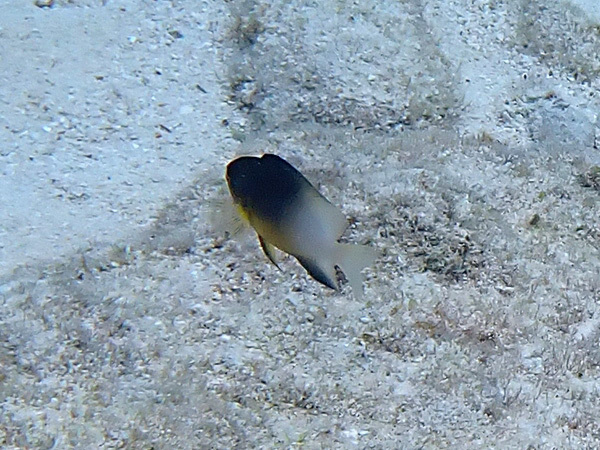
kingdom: Animalia
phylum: Chordata
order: Perciformes
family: Pomacentridae
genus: Stegastes
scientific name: Stegastes partitus
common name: Bicolor damselfish
